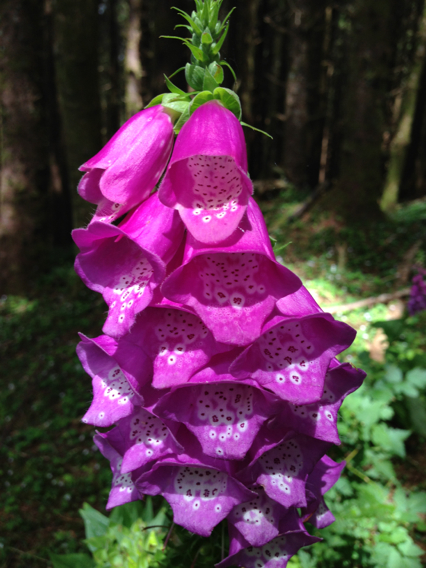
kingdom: Plantae
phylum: Tracheophyta
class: Magnoliopsida
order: Lamiales
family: Plantaginaceae
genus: Digitalis
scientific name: Digitalis purpurea
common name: Foxglove
